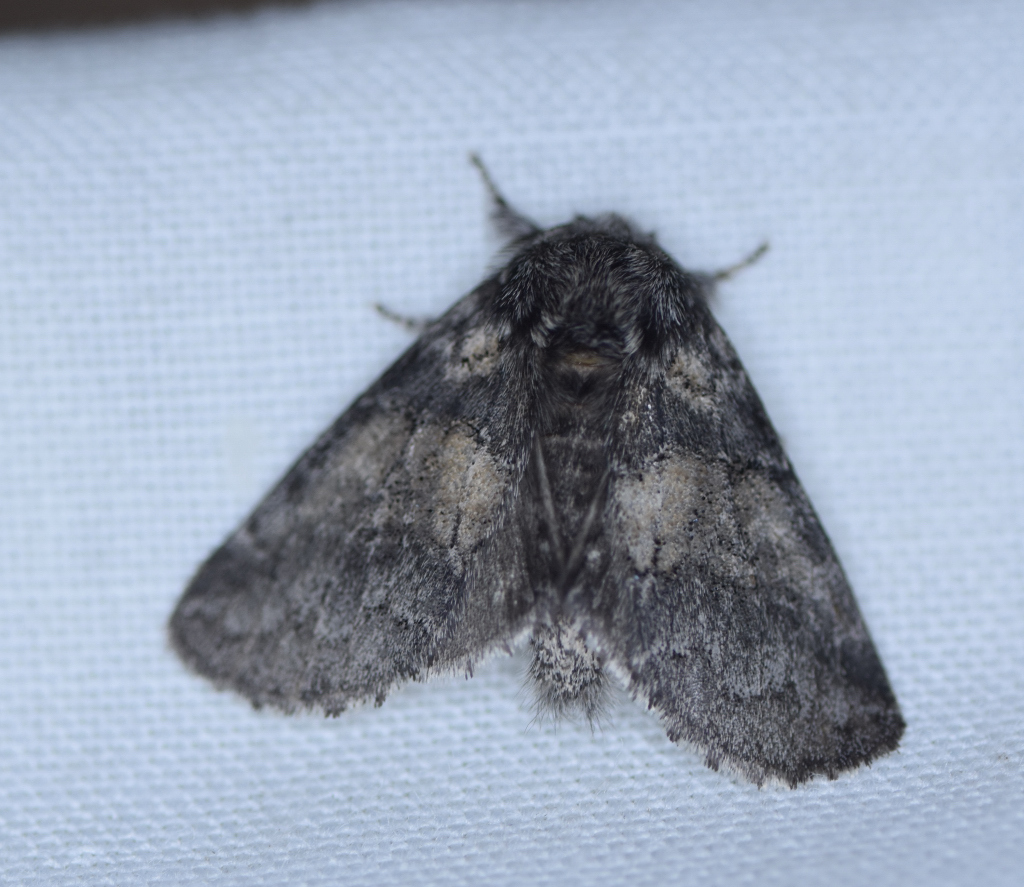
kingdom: Animalia
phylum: Arthropoda
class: Insecta
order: Lepidoptera
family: Notodontidae
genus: Gluphisia
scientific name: Gluphisia septentrionis
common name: Common gluphisia
